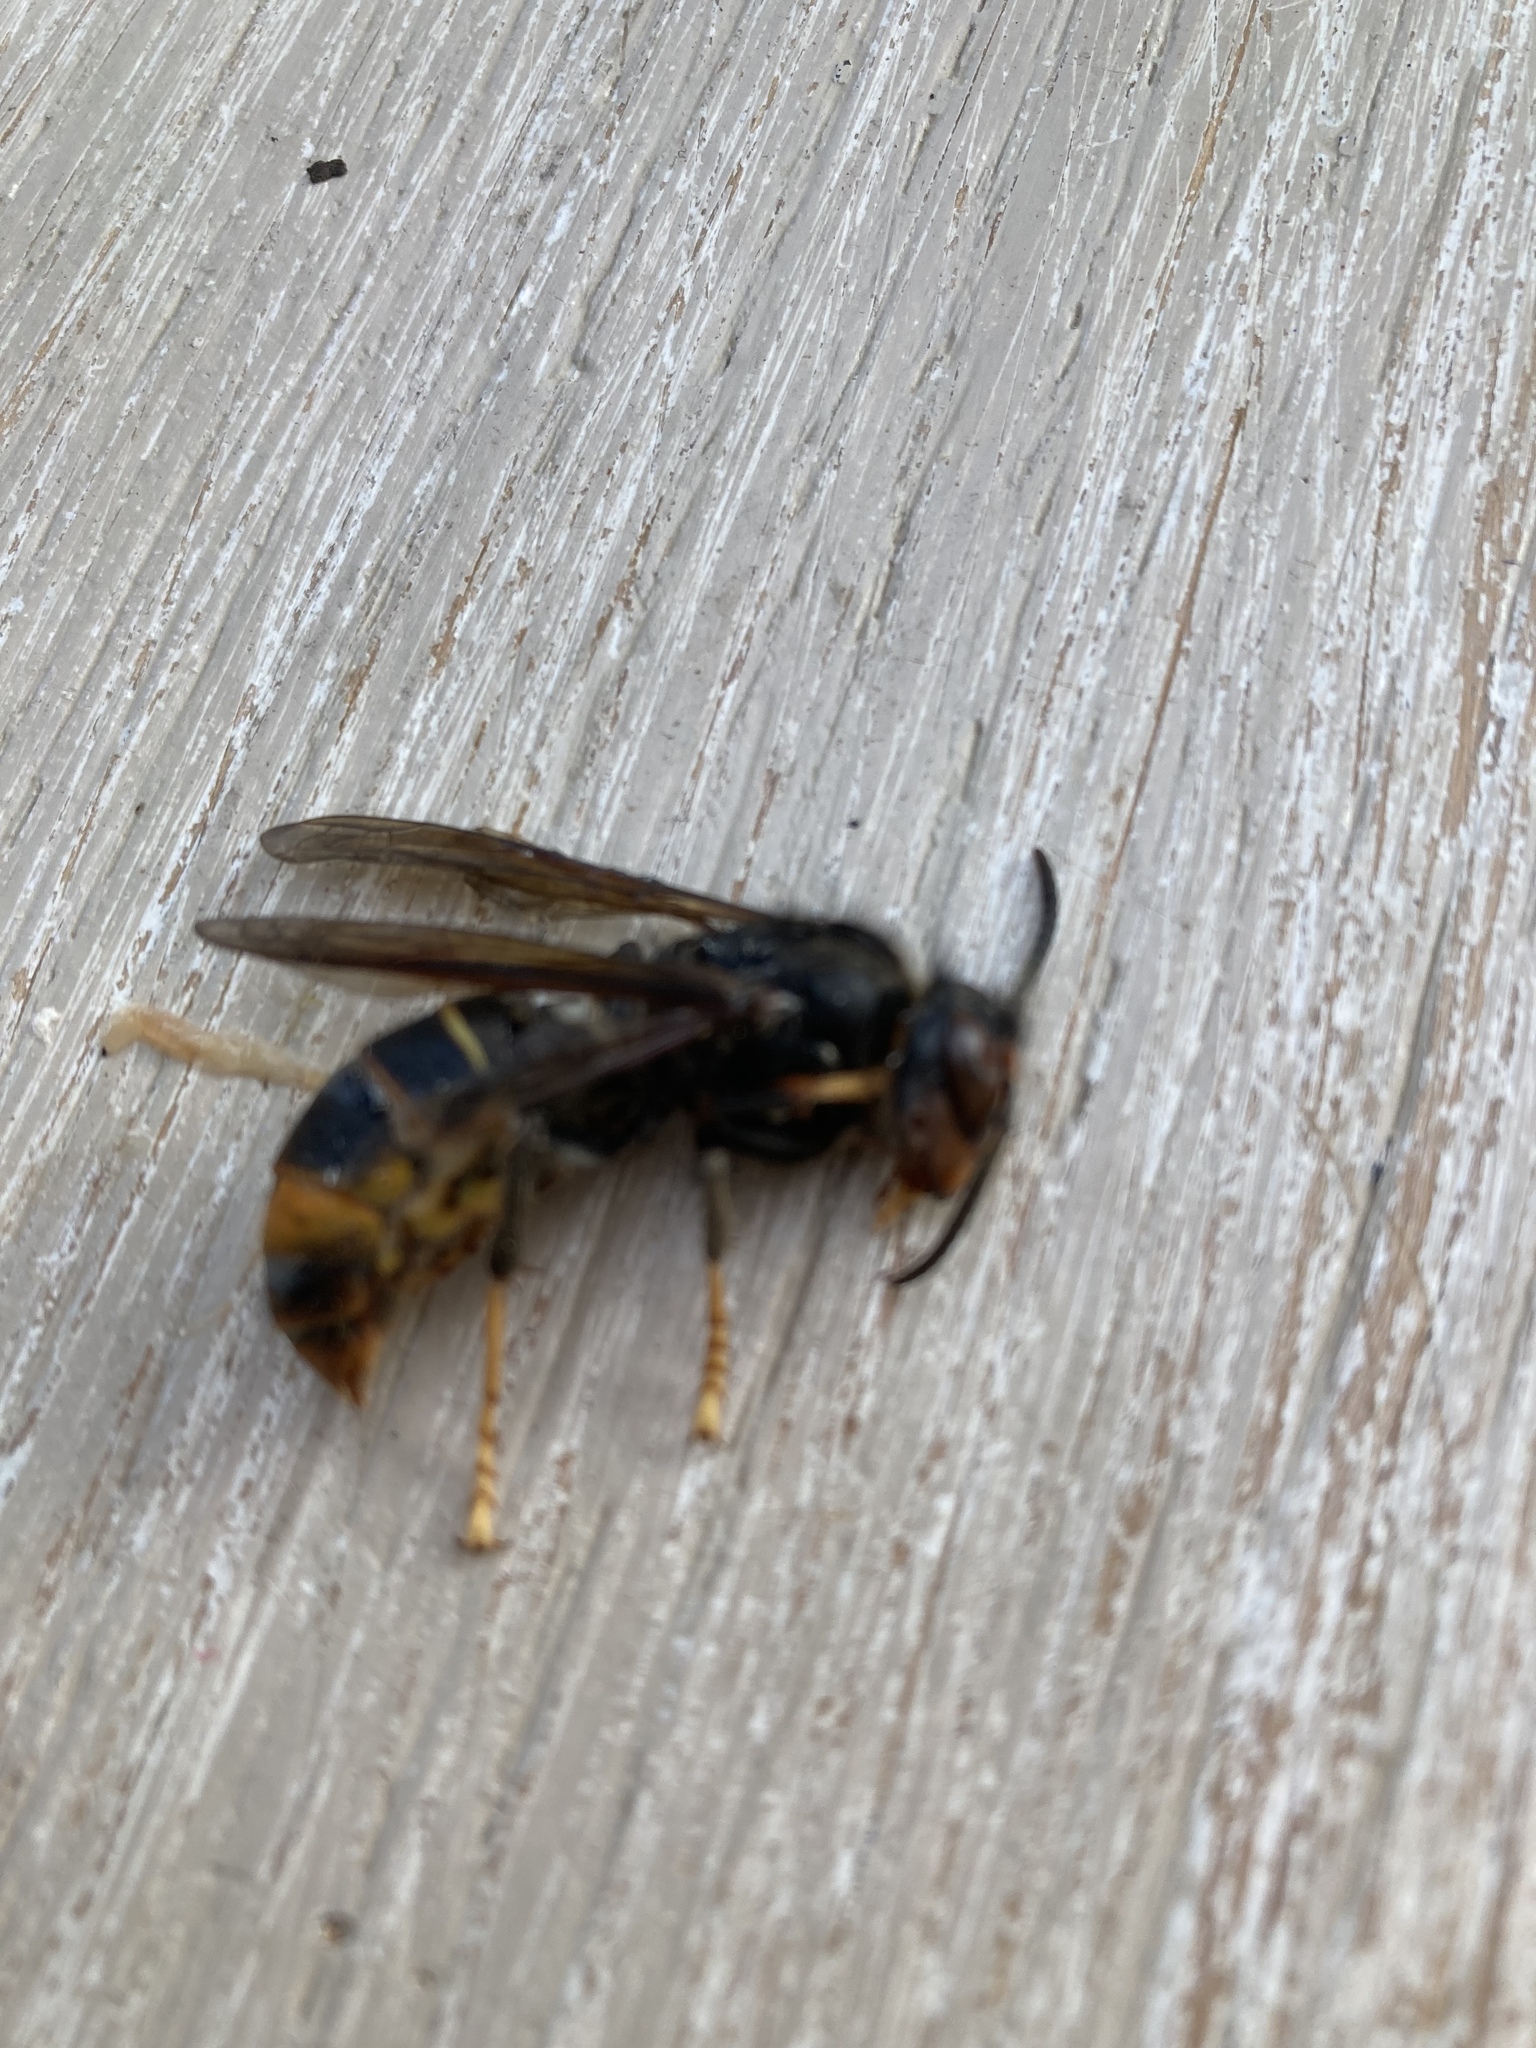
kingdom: Animalia
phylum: Arthropoda
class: Insecta
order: Hymenoptera
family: Vespidae
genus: Vespa
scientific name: Vespa velutina
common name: Asian hornet
